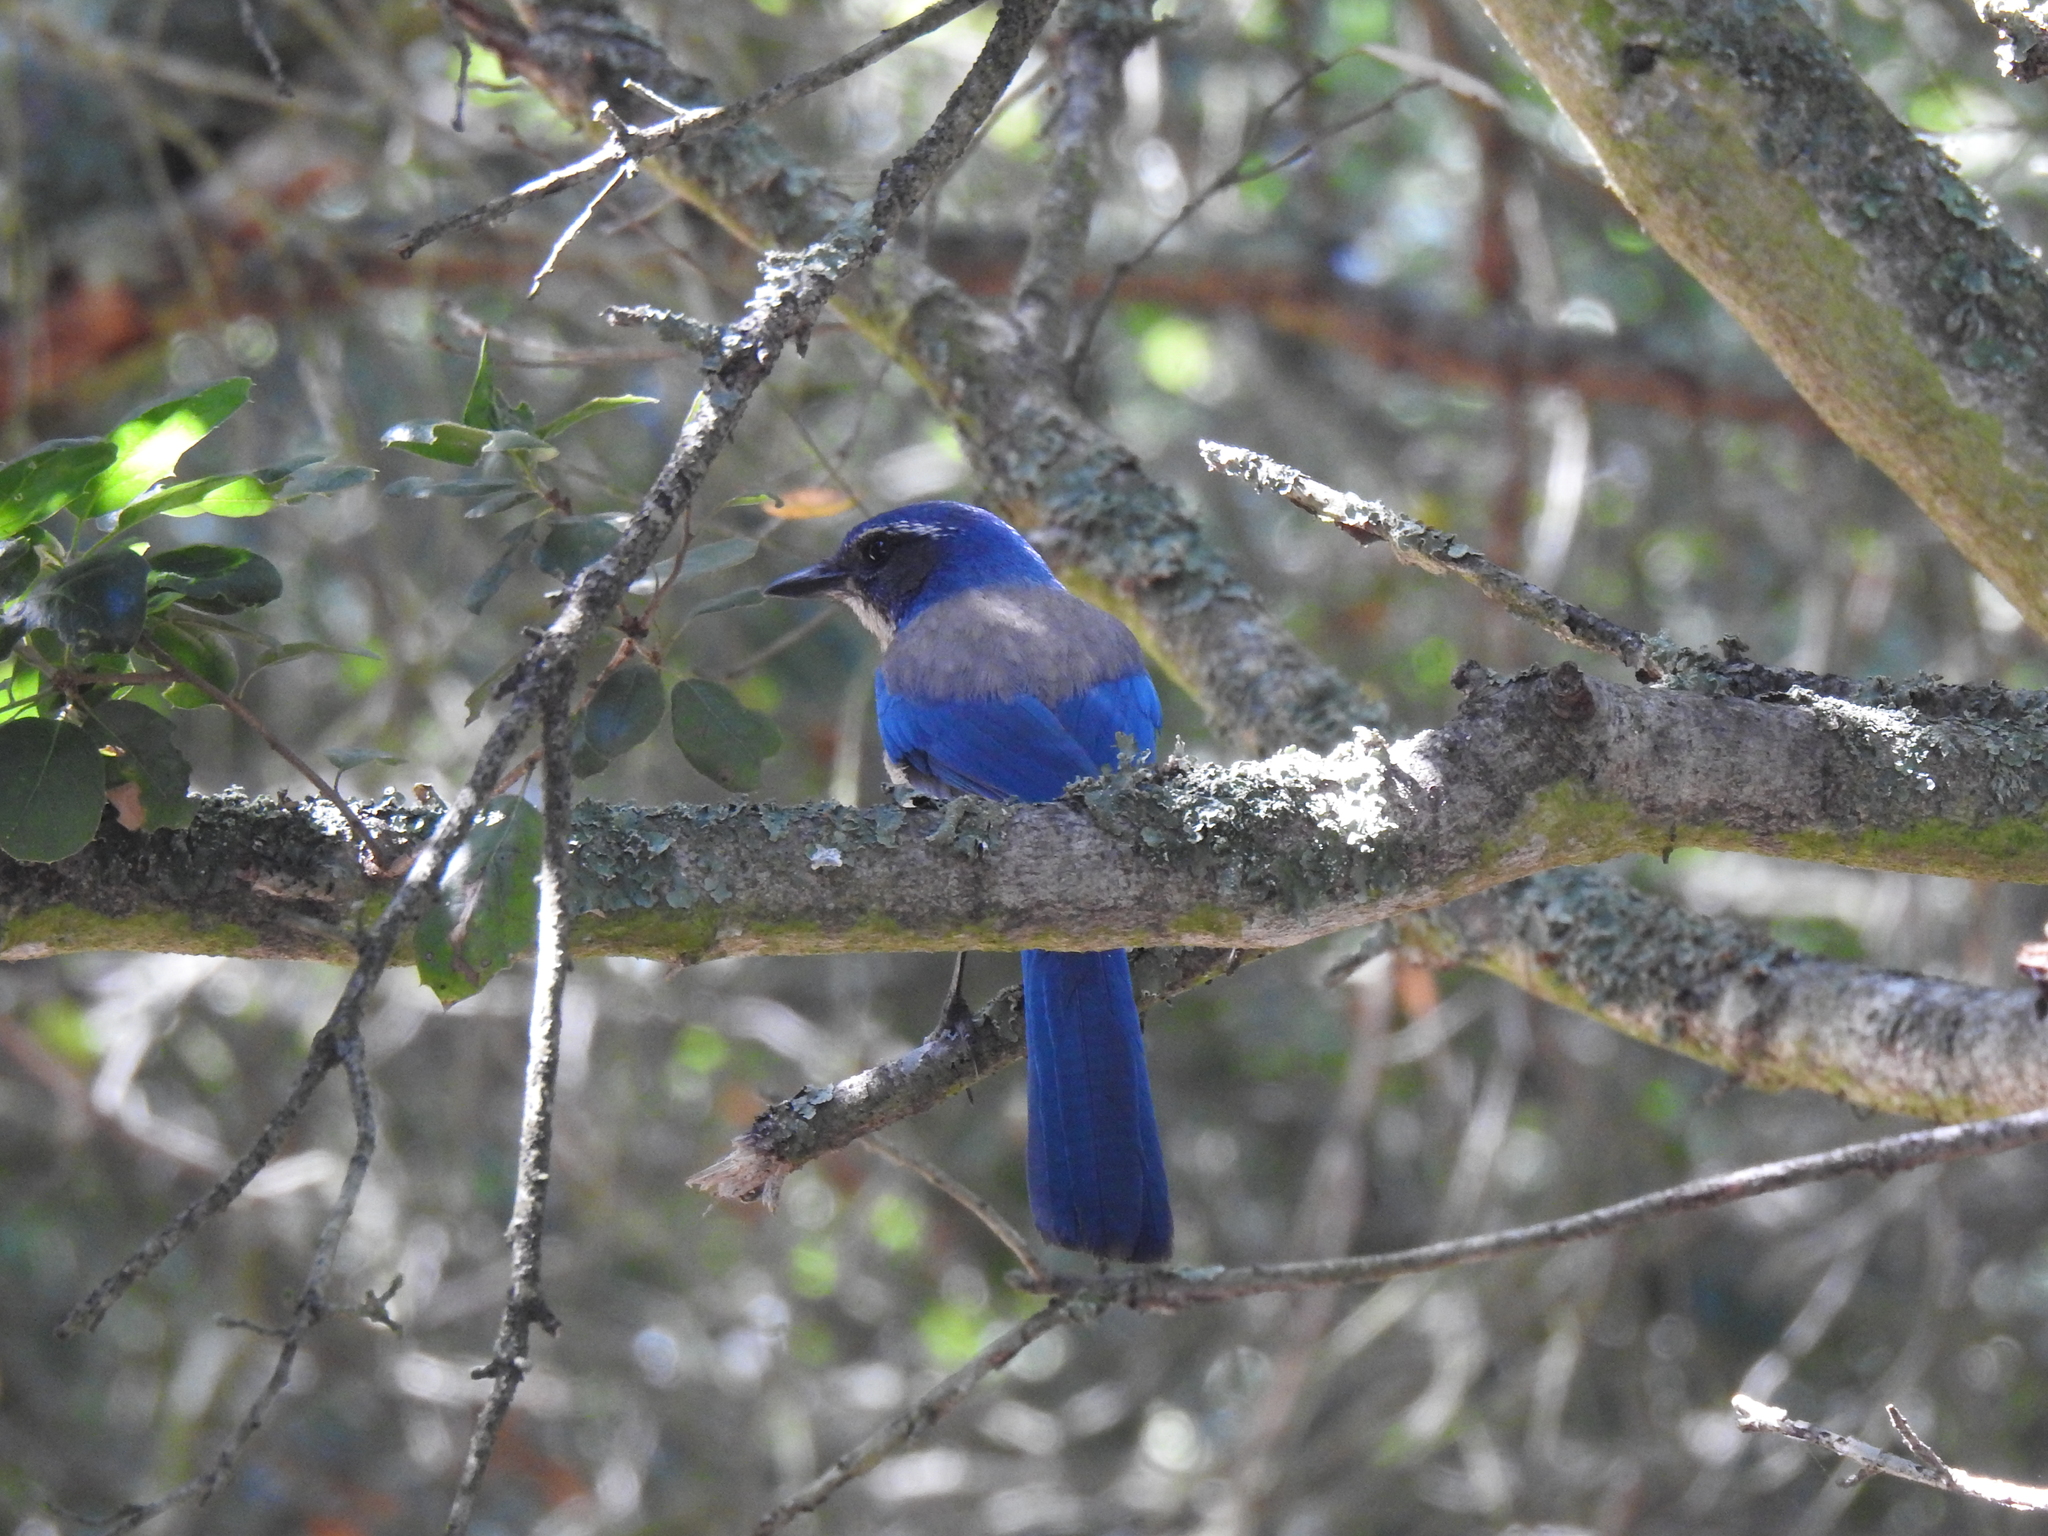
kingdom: Animalia
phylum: Chordata
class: Aves
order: Passeriformes
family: Corvidae
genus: Aphelocoma
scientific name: Aphelocoma californica
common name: California scrub-jay
